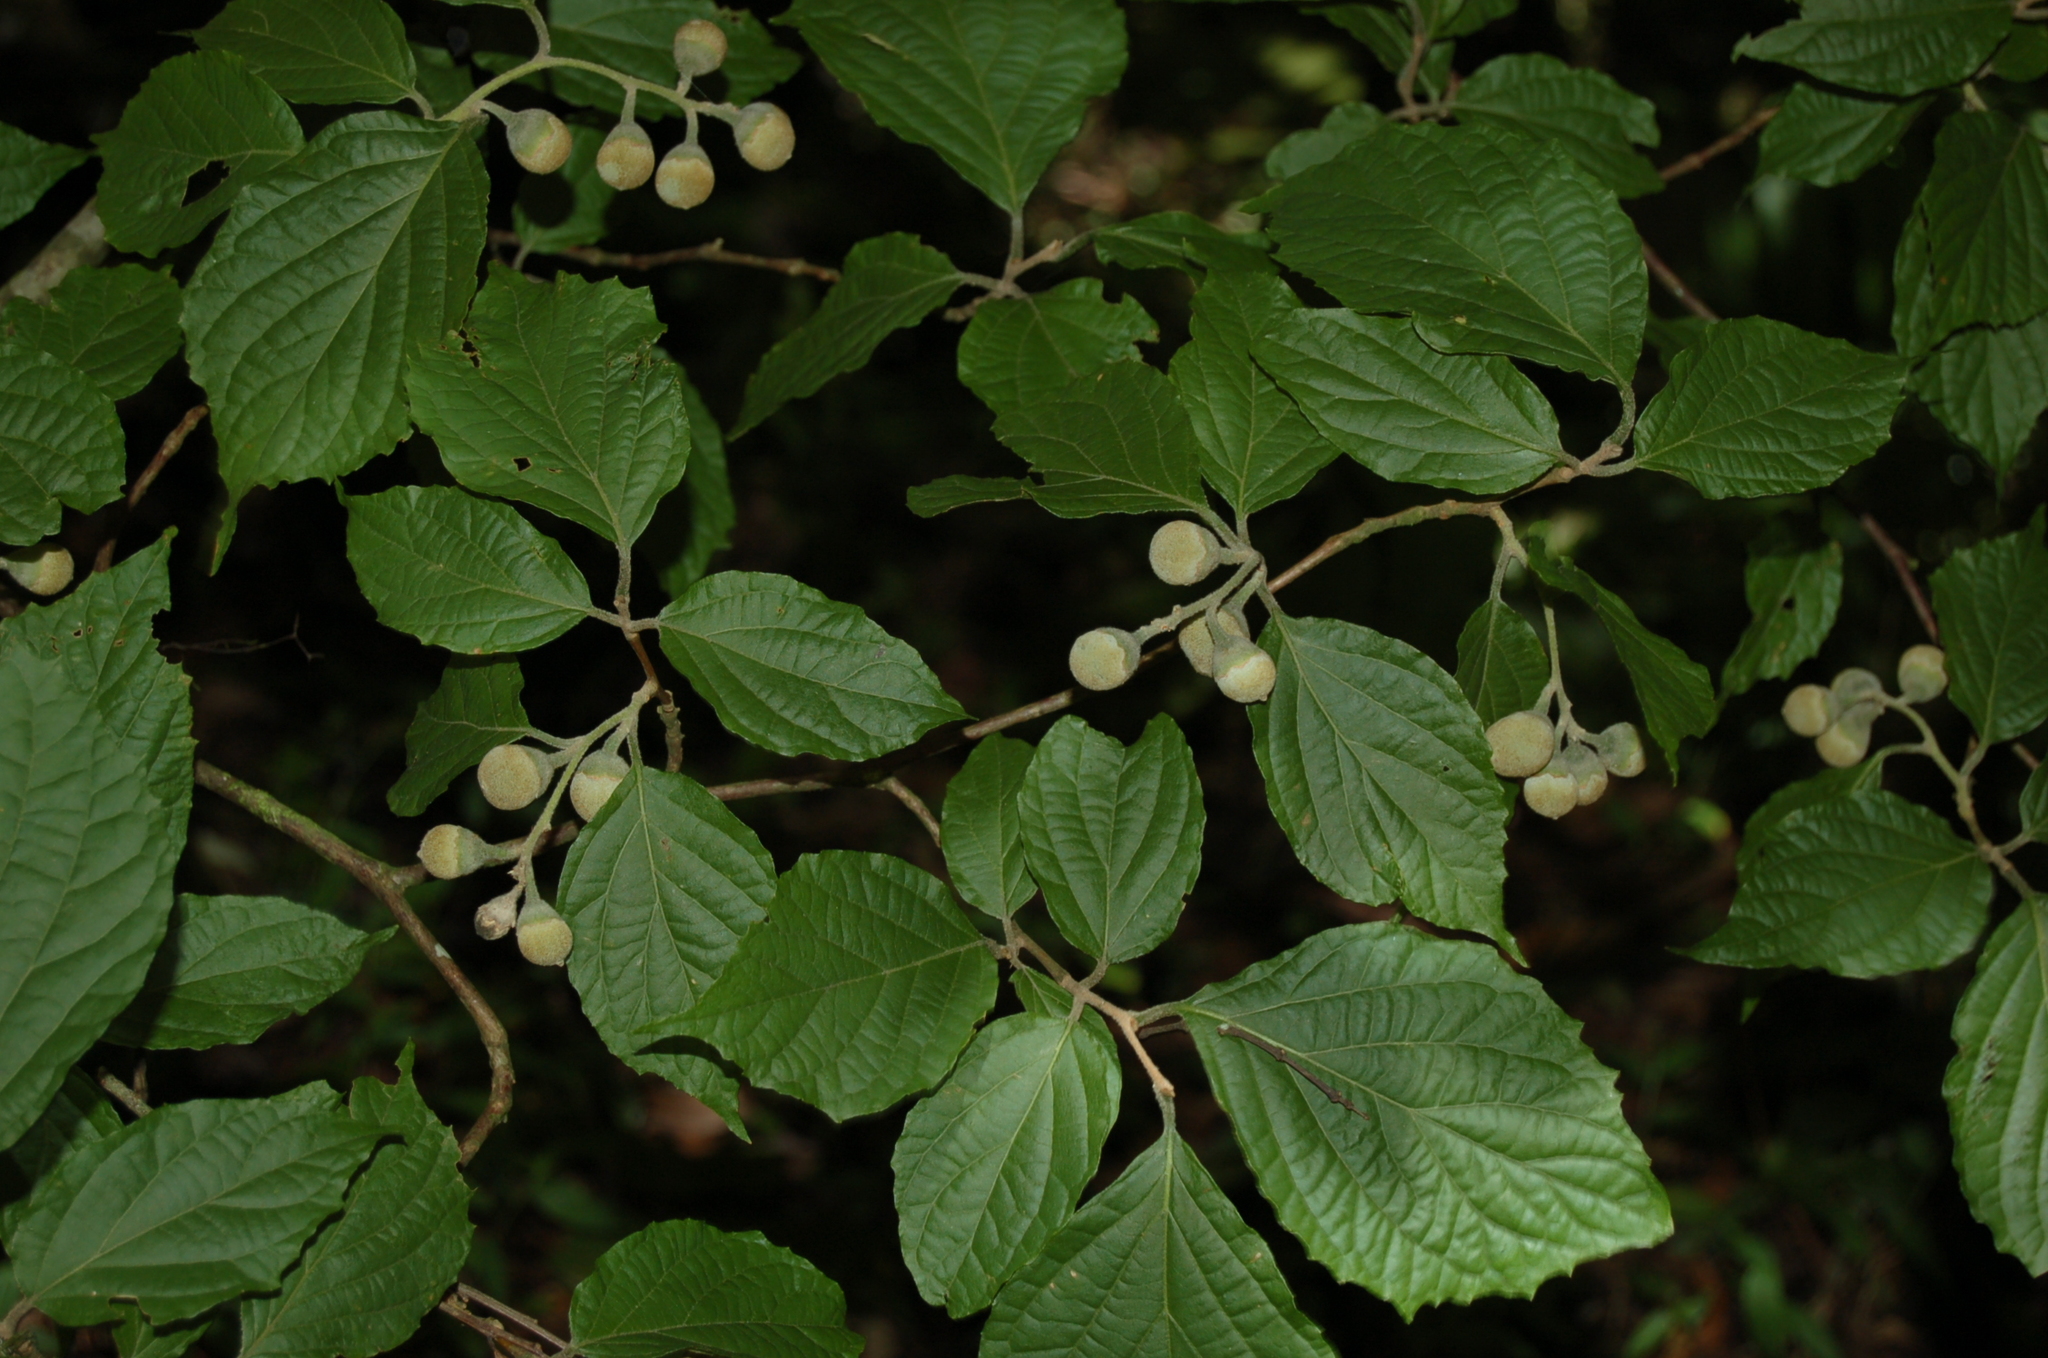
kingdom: Plantae
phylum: Tracheophyta
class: Magnoliopsida
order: Ericales
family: Styracaceae
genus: Styrax
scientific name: Styrax glabrescens
